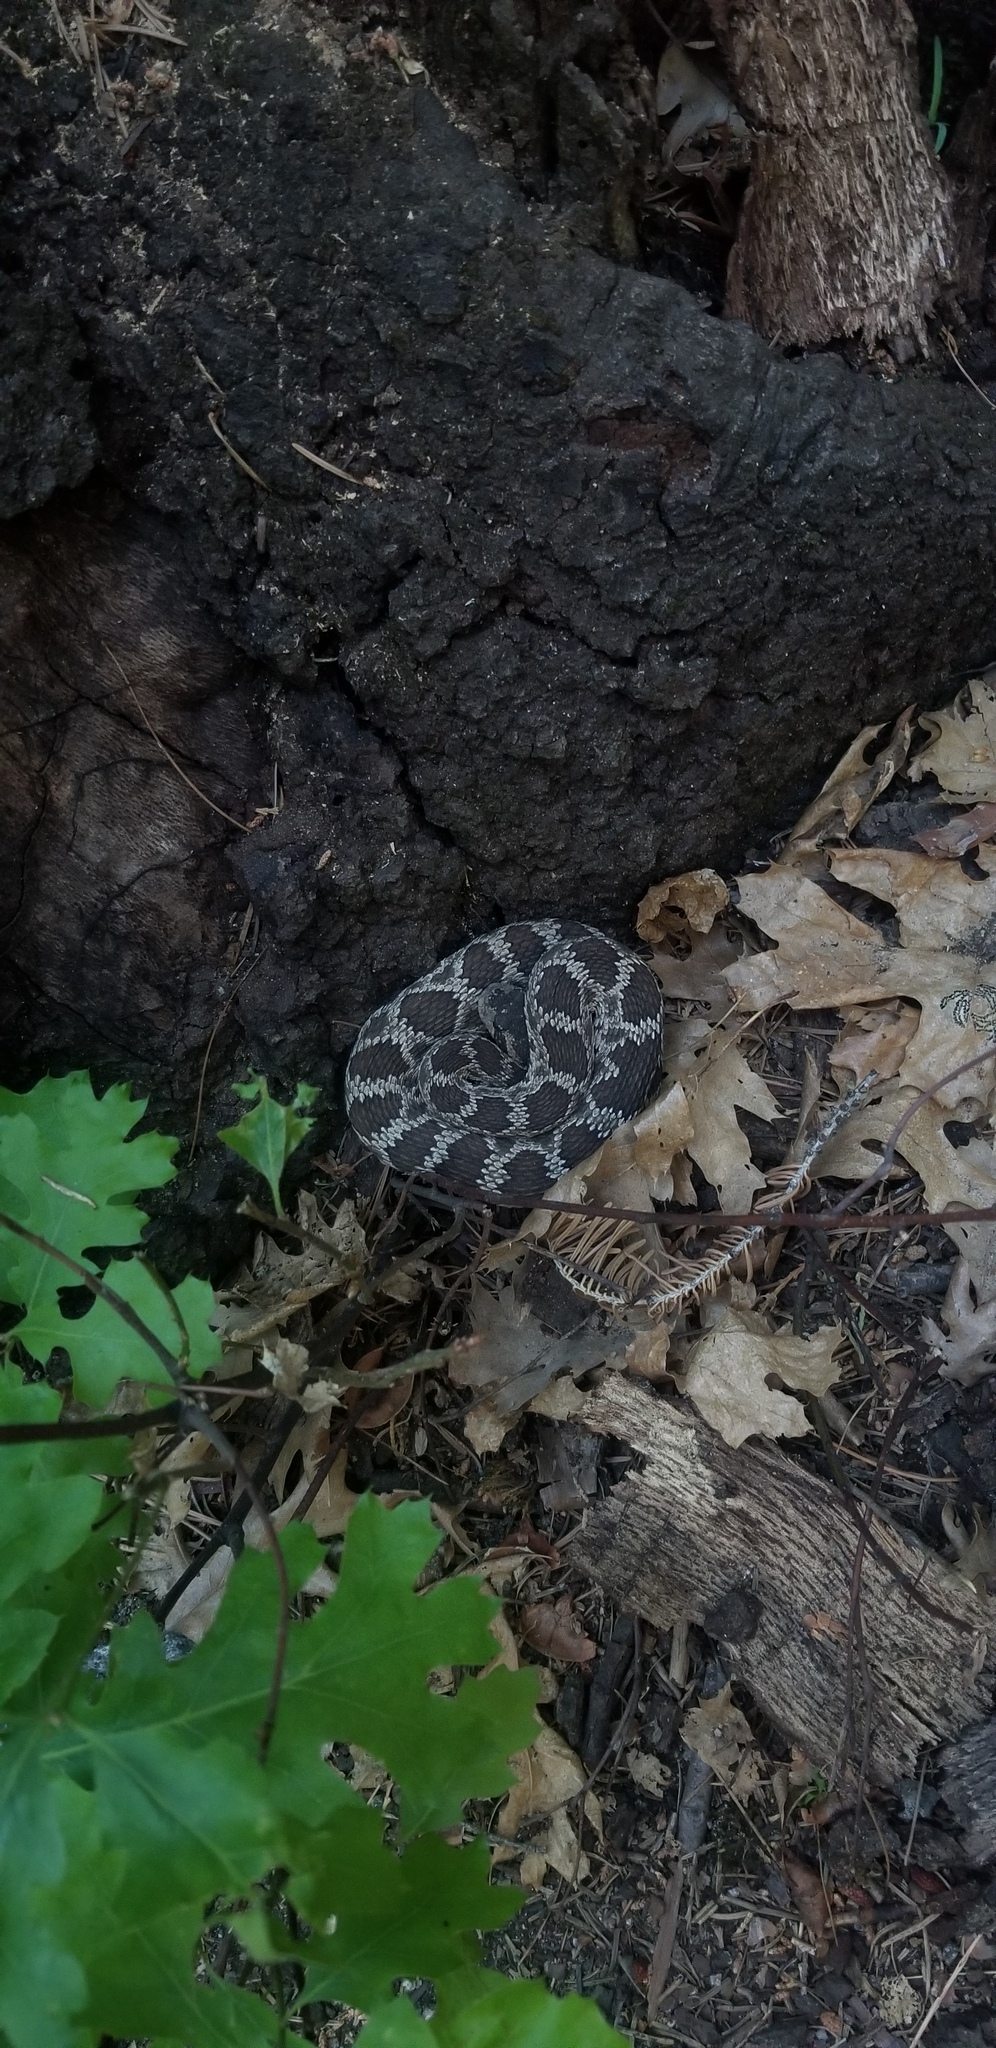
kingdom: Animalia
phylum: Chordata
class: Squamata
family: Viperidae
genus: Crotalus
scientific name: Crotalus oreganus
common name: Abyssus
